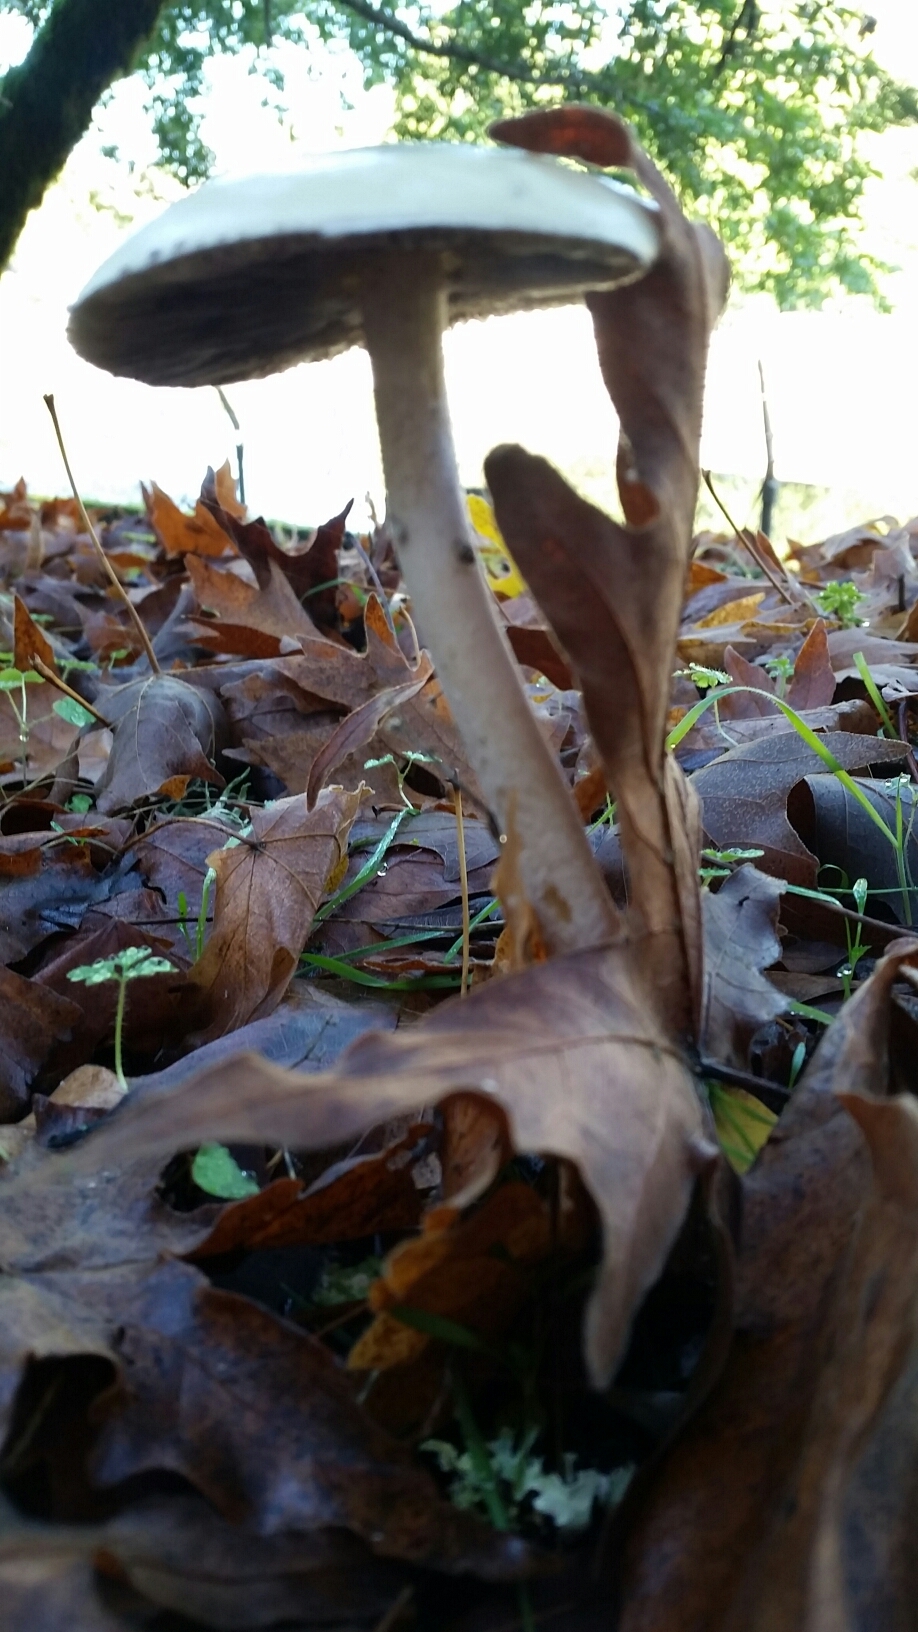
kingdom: Fungi
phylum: Basidiomycota
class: Agaricomycetes
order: Agaricales
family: Strophariaceae
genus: Stropharia
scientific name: Stropharia ambigua
